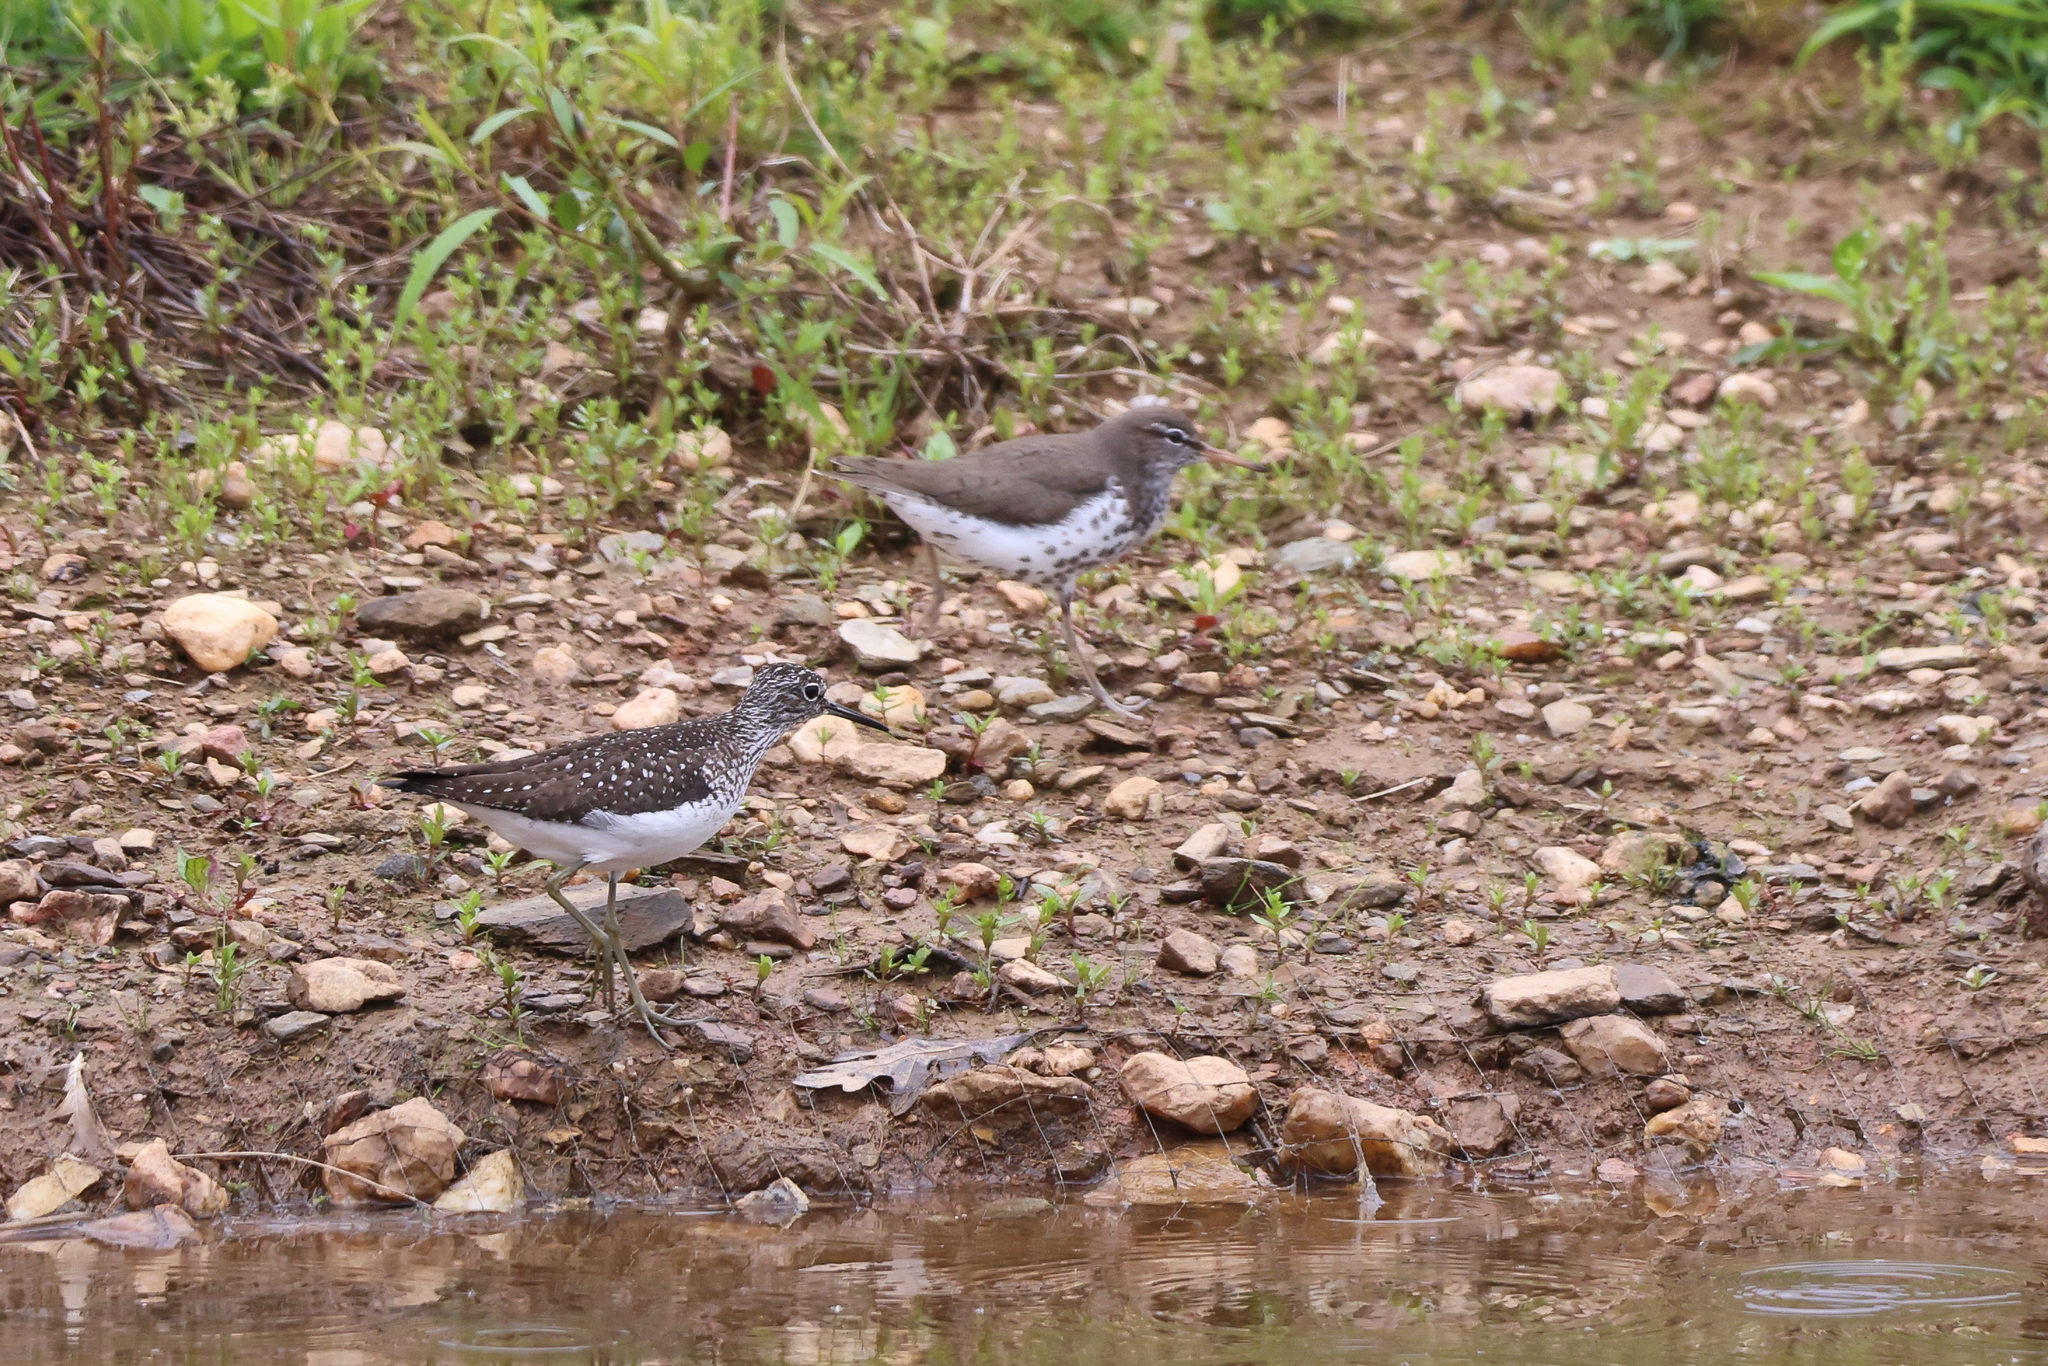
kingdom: Animalia
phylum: Chordata
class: Aves
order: Charadriiformes
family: Scolopacidae
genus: Tringa
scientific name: Tringa solitaria
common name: Solitary sandpiper
